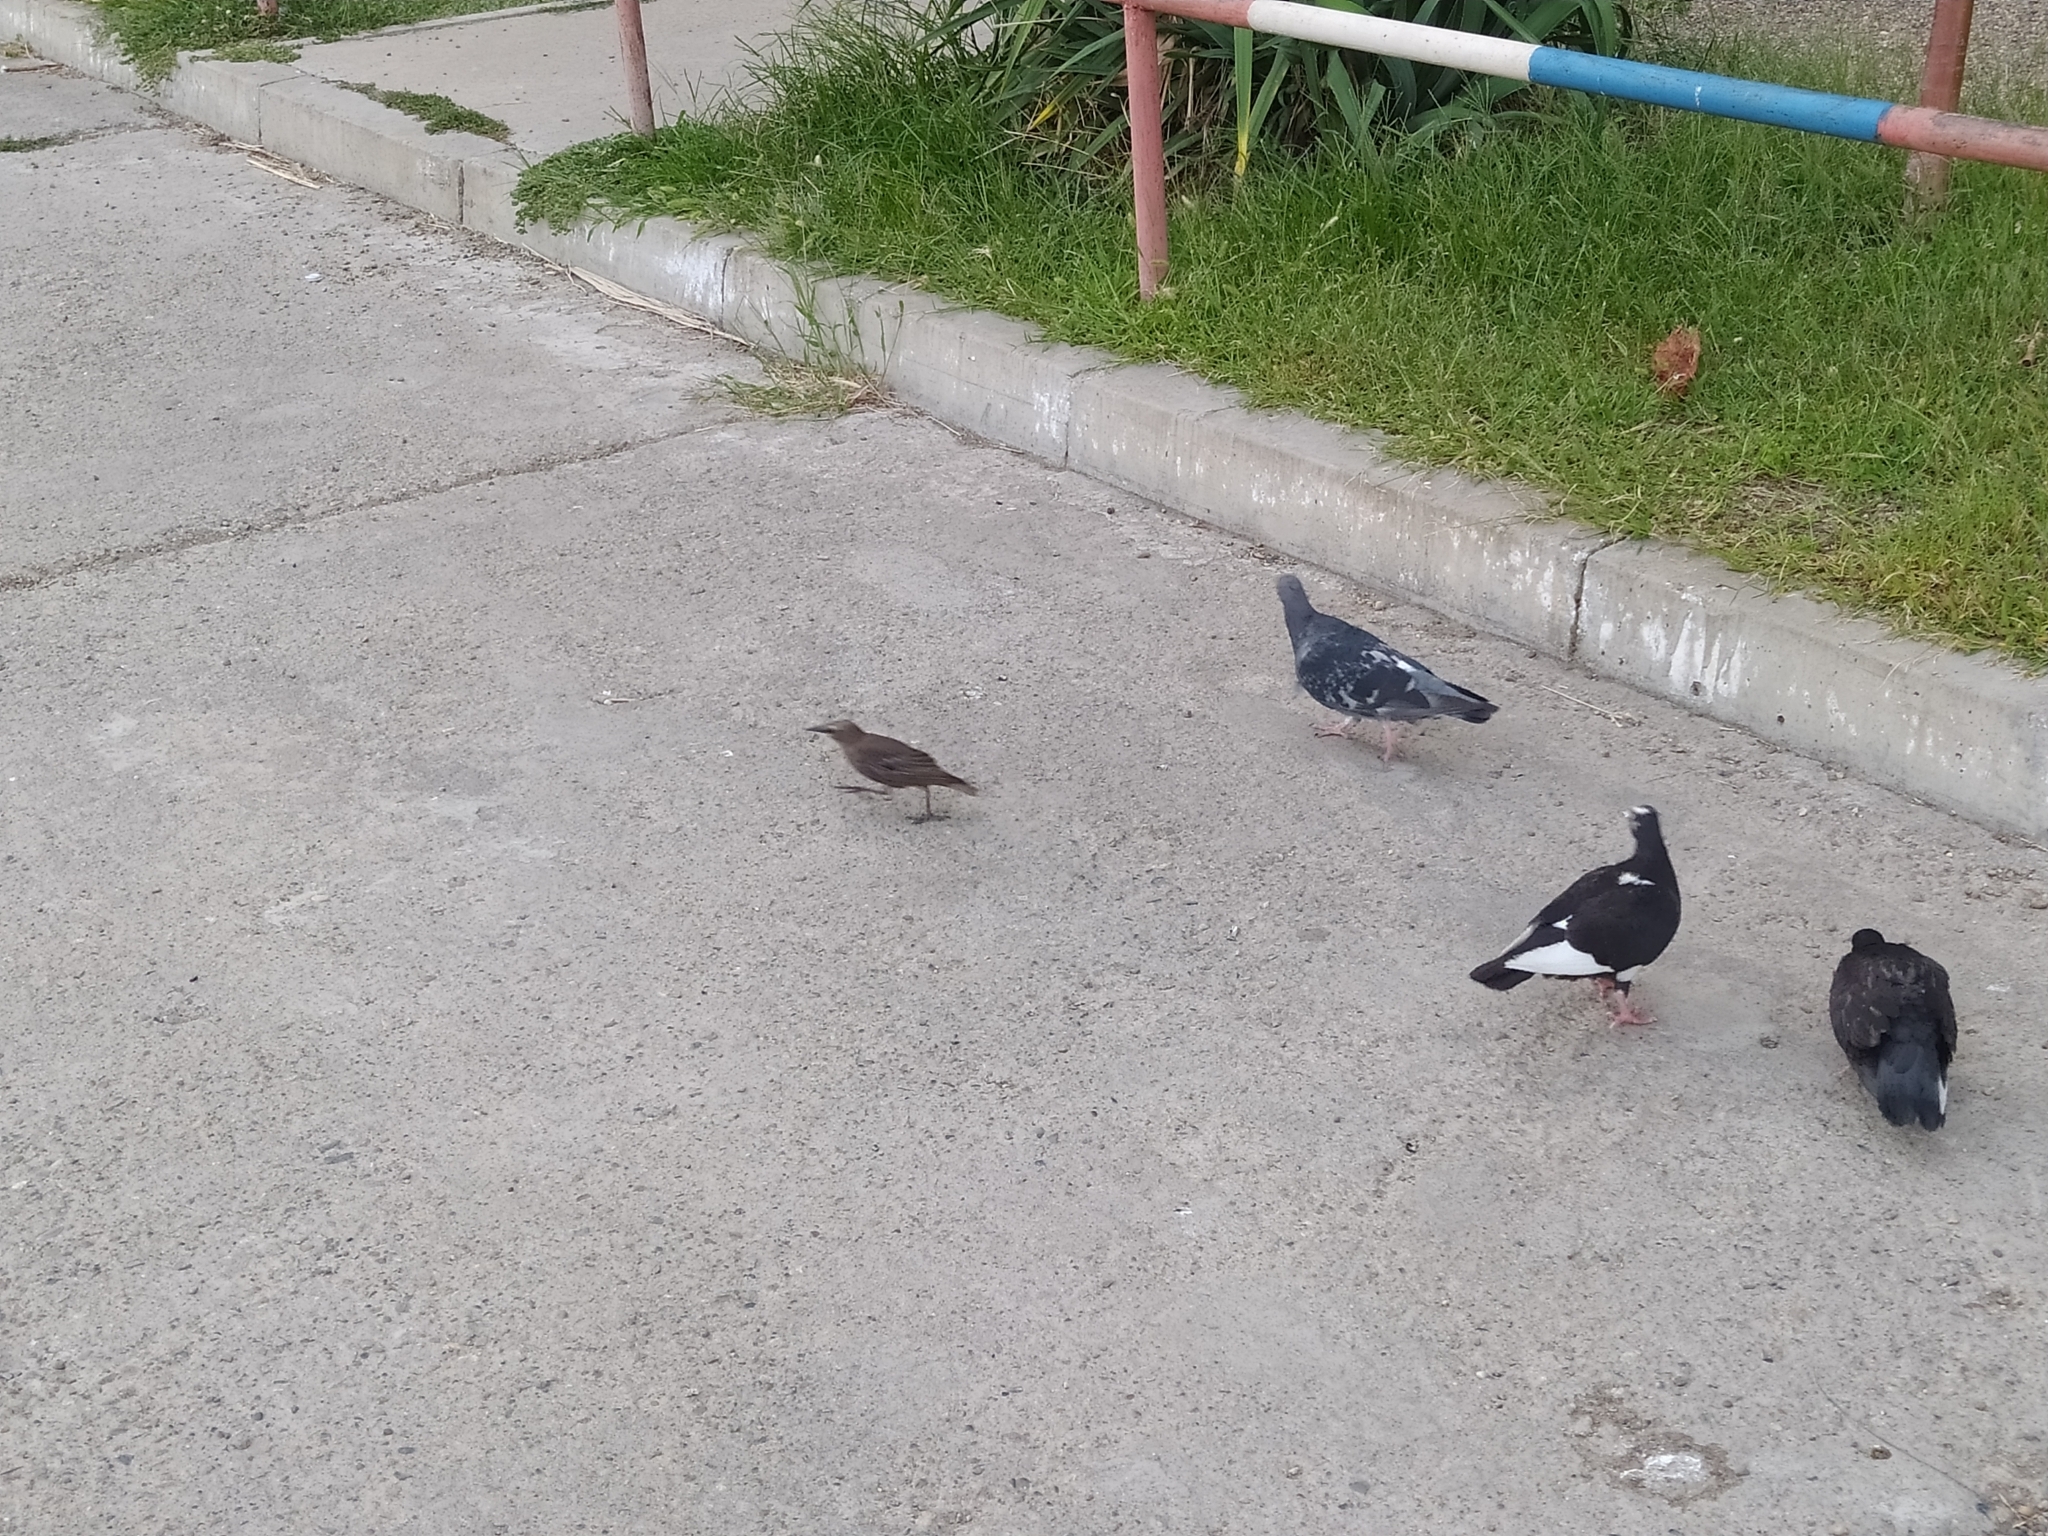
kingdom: Animalia
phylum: Chordata
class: Aves
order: Passeriformes
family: Sturnidae
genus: Sturnus
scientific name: Sturnus vulgaris
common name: Common starling
